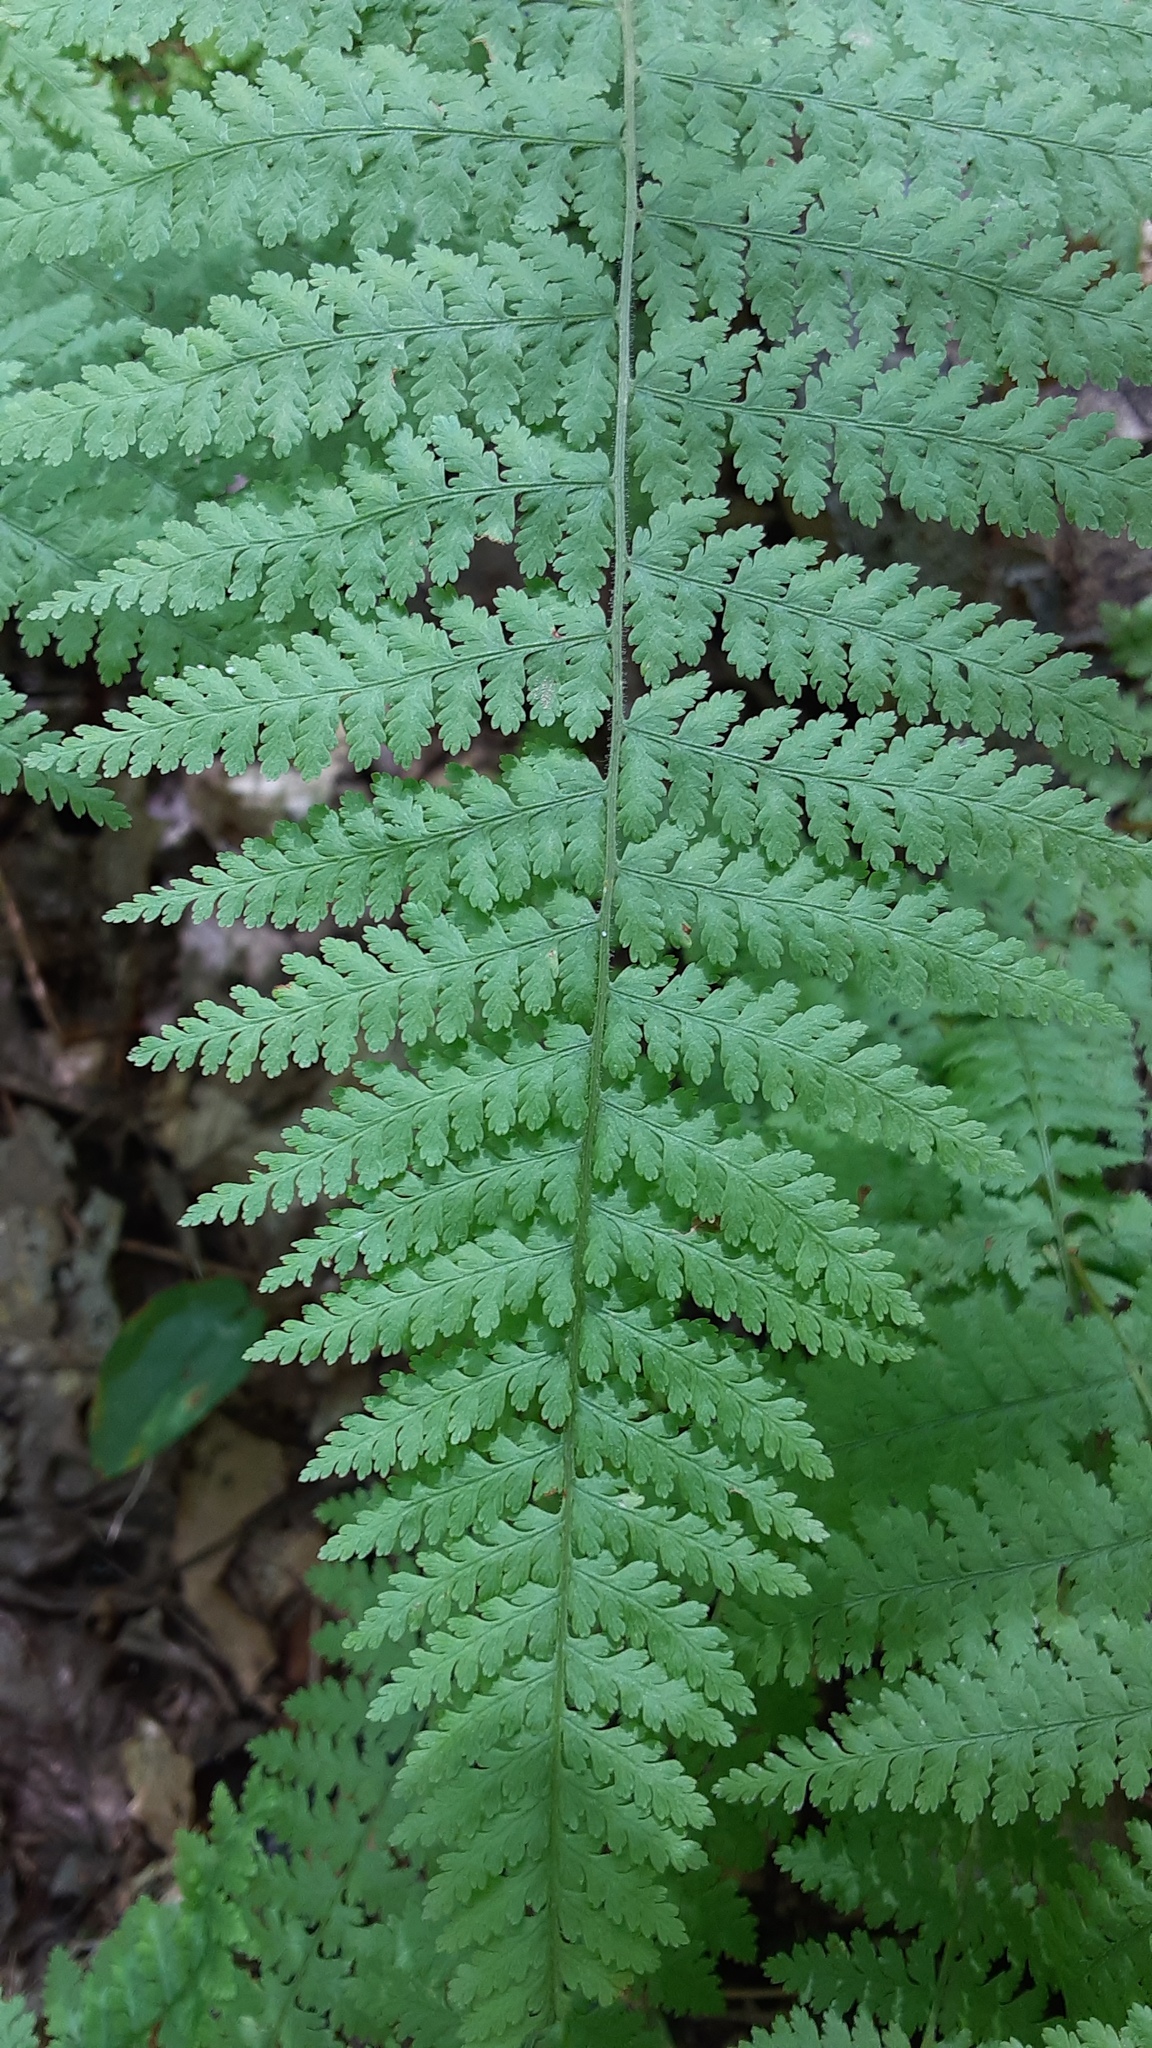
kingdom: Plantae
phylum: Tracheophyta
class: Polypodiopsida
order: Polypodiales
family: Dennstaedtiaceae
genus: Sitobolium
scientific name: Sitobolium punctilobum
